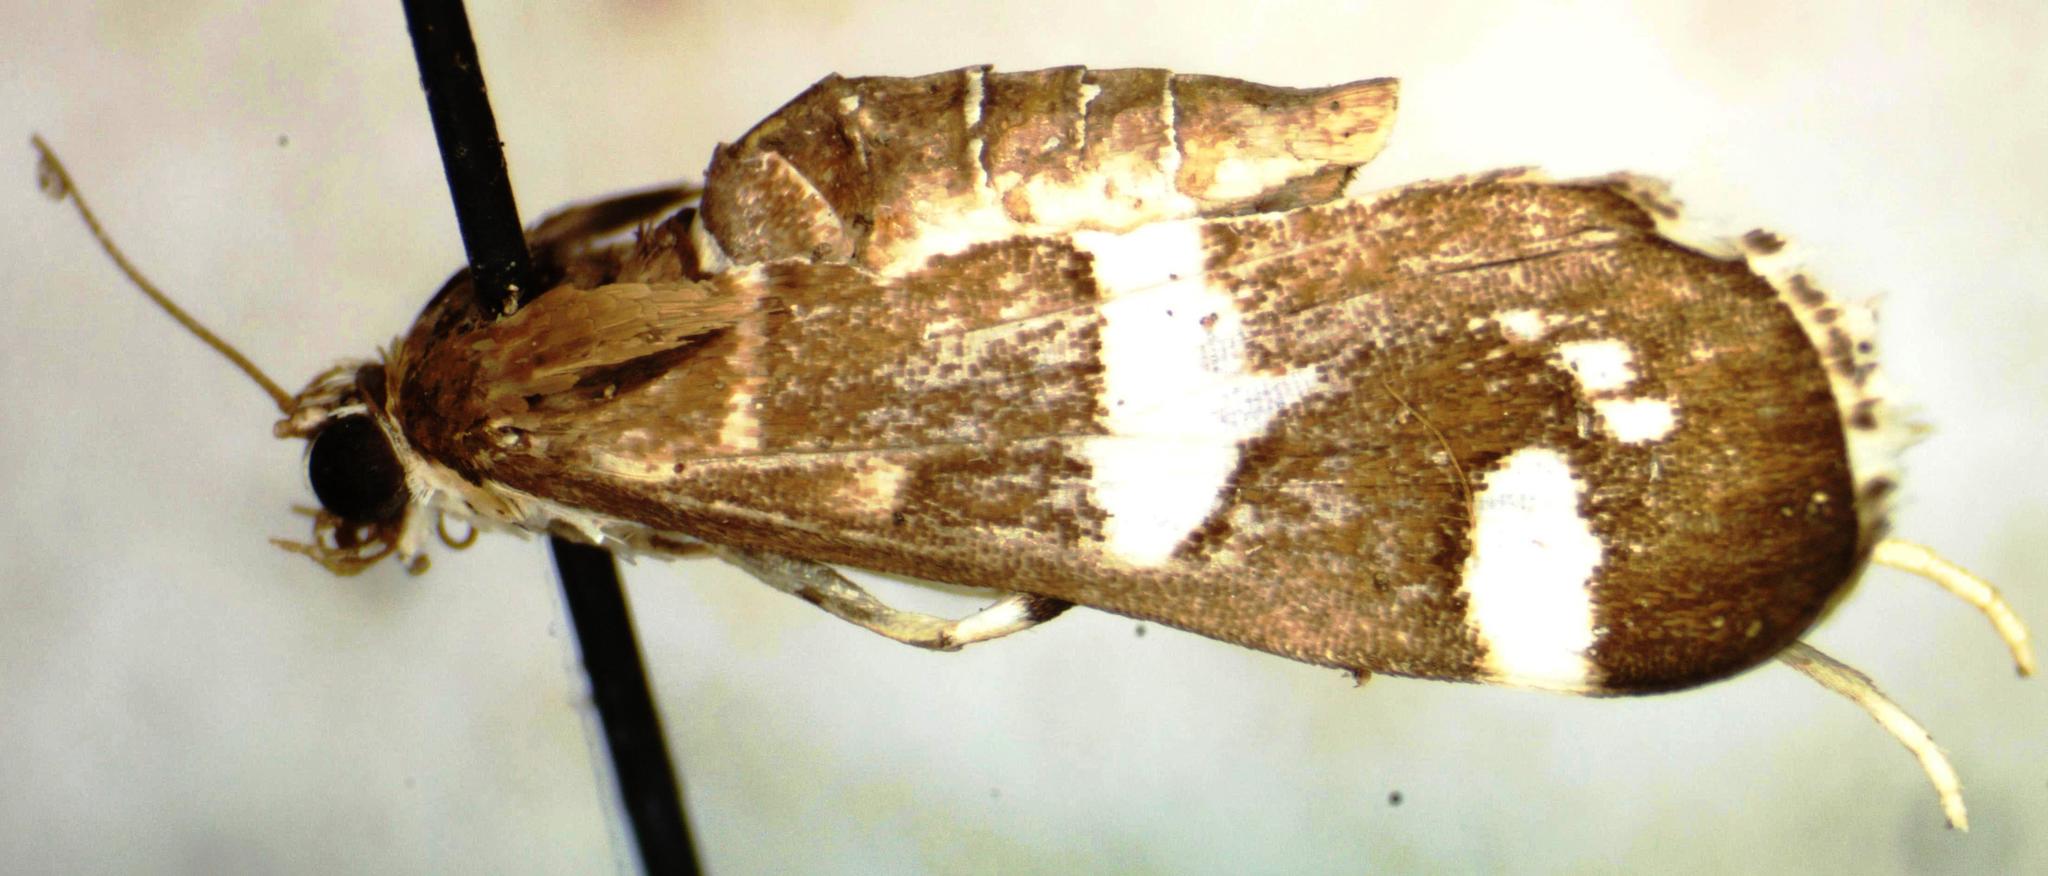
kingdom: Animalia
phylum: Arthropoda
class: Insecta
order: Lepidoptera
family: Crambidae
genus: Spoladea
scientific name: Spoladea recurvalis
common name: Beet webworm moth
